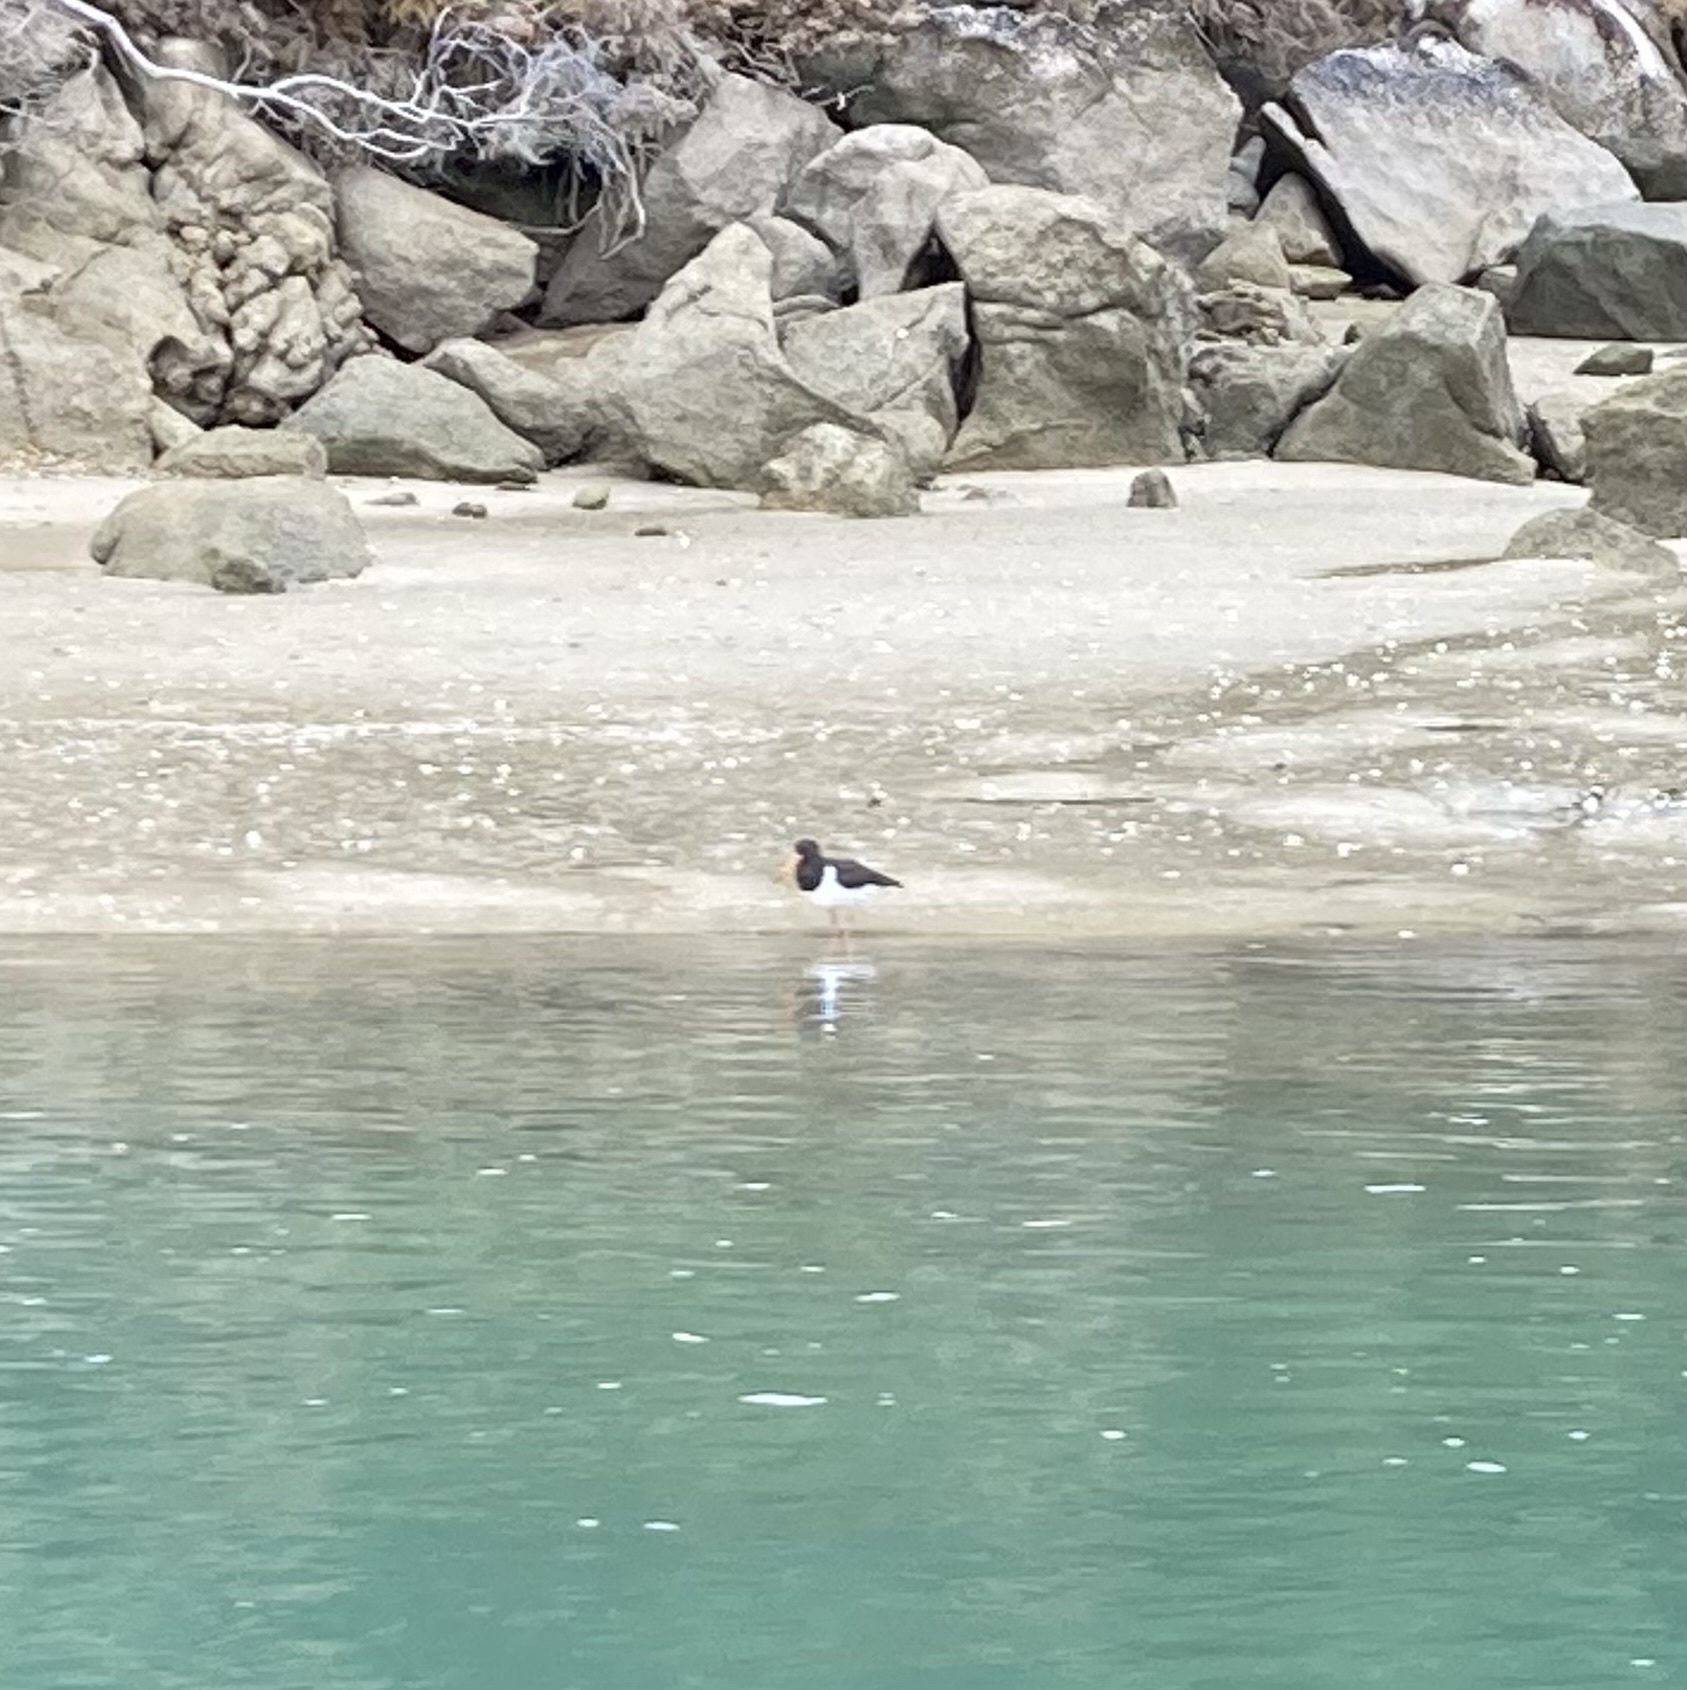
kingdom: Animalia
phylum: Chordata
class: Aves
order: Charadriiformes
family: Haematopodidae
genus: Haematopus
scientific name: Haematopus finschi
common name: South island oystercatcher
